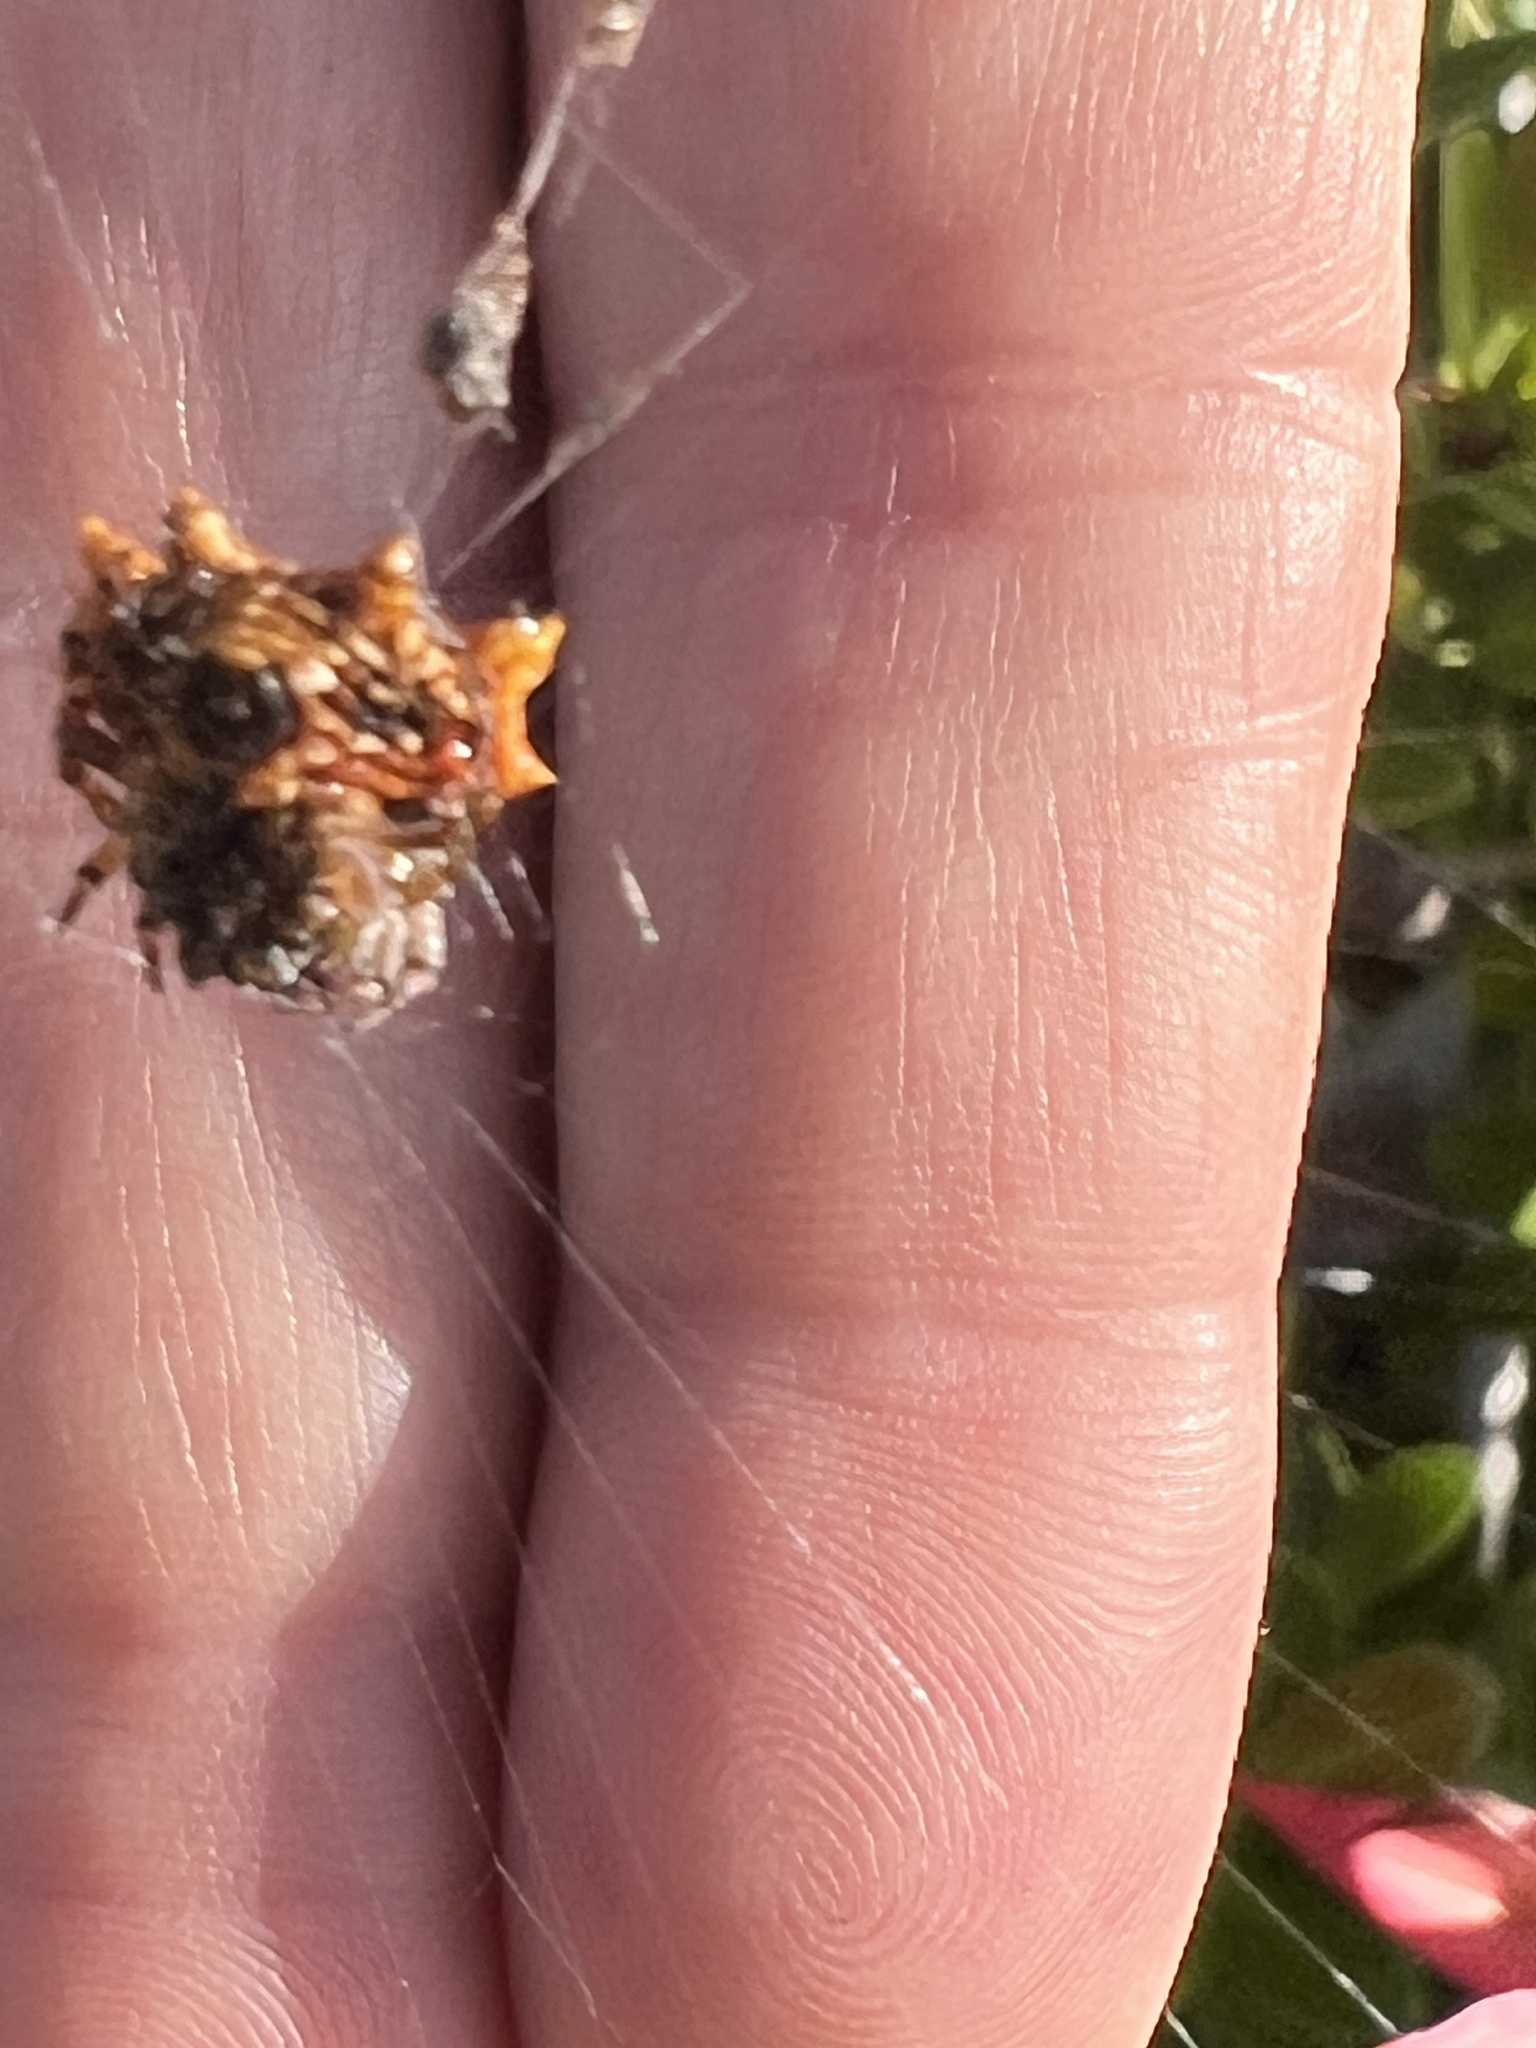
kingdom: Animalia
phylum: Arthropoda
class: Arachnida
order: Araneae
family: Araneidae
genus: Thelacantha
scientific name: Thelacantha brevispina
